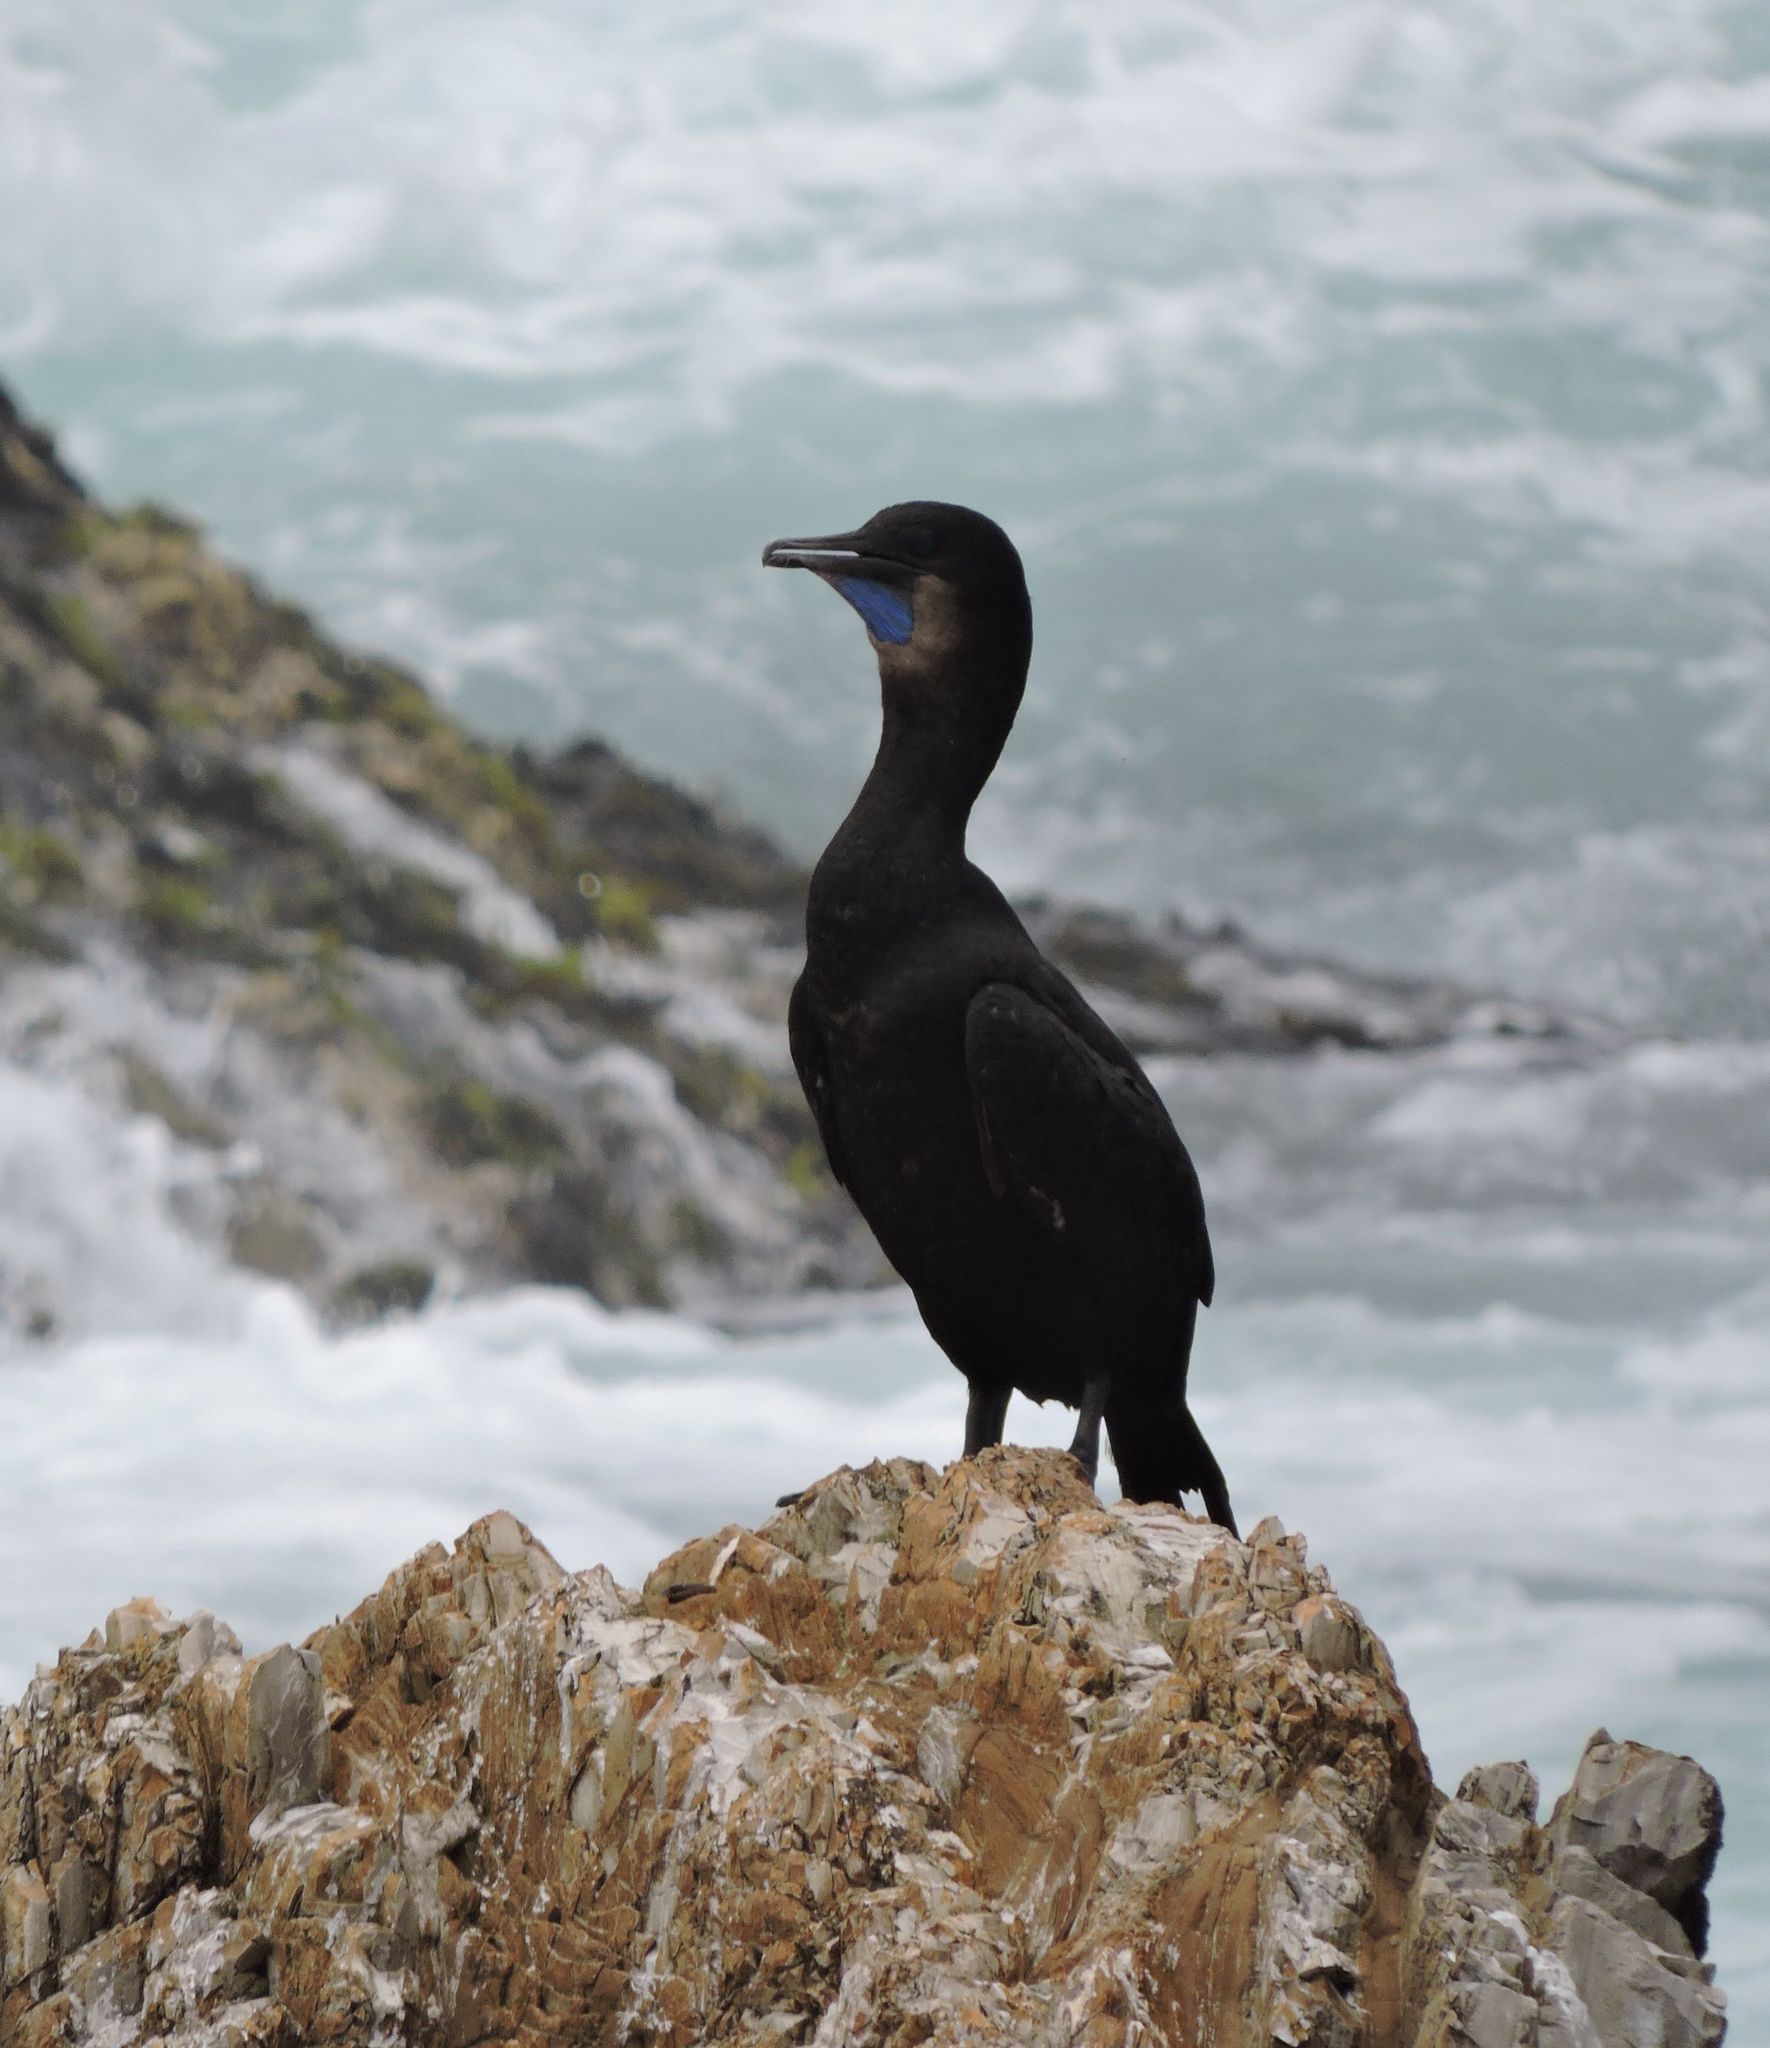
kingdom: Animalia
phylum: Chordata
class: Aves
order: Suliformes
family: Phalacrocoracidae
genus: Urile
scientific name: Urile penicillatus
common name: Brandt's cormorant
